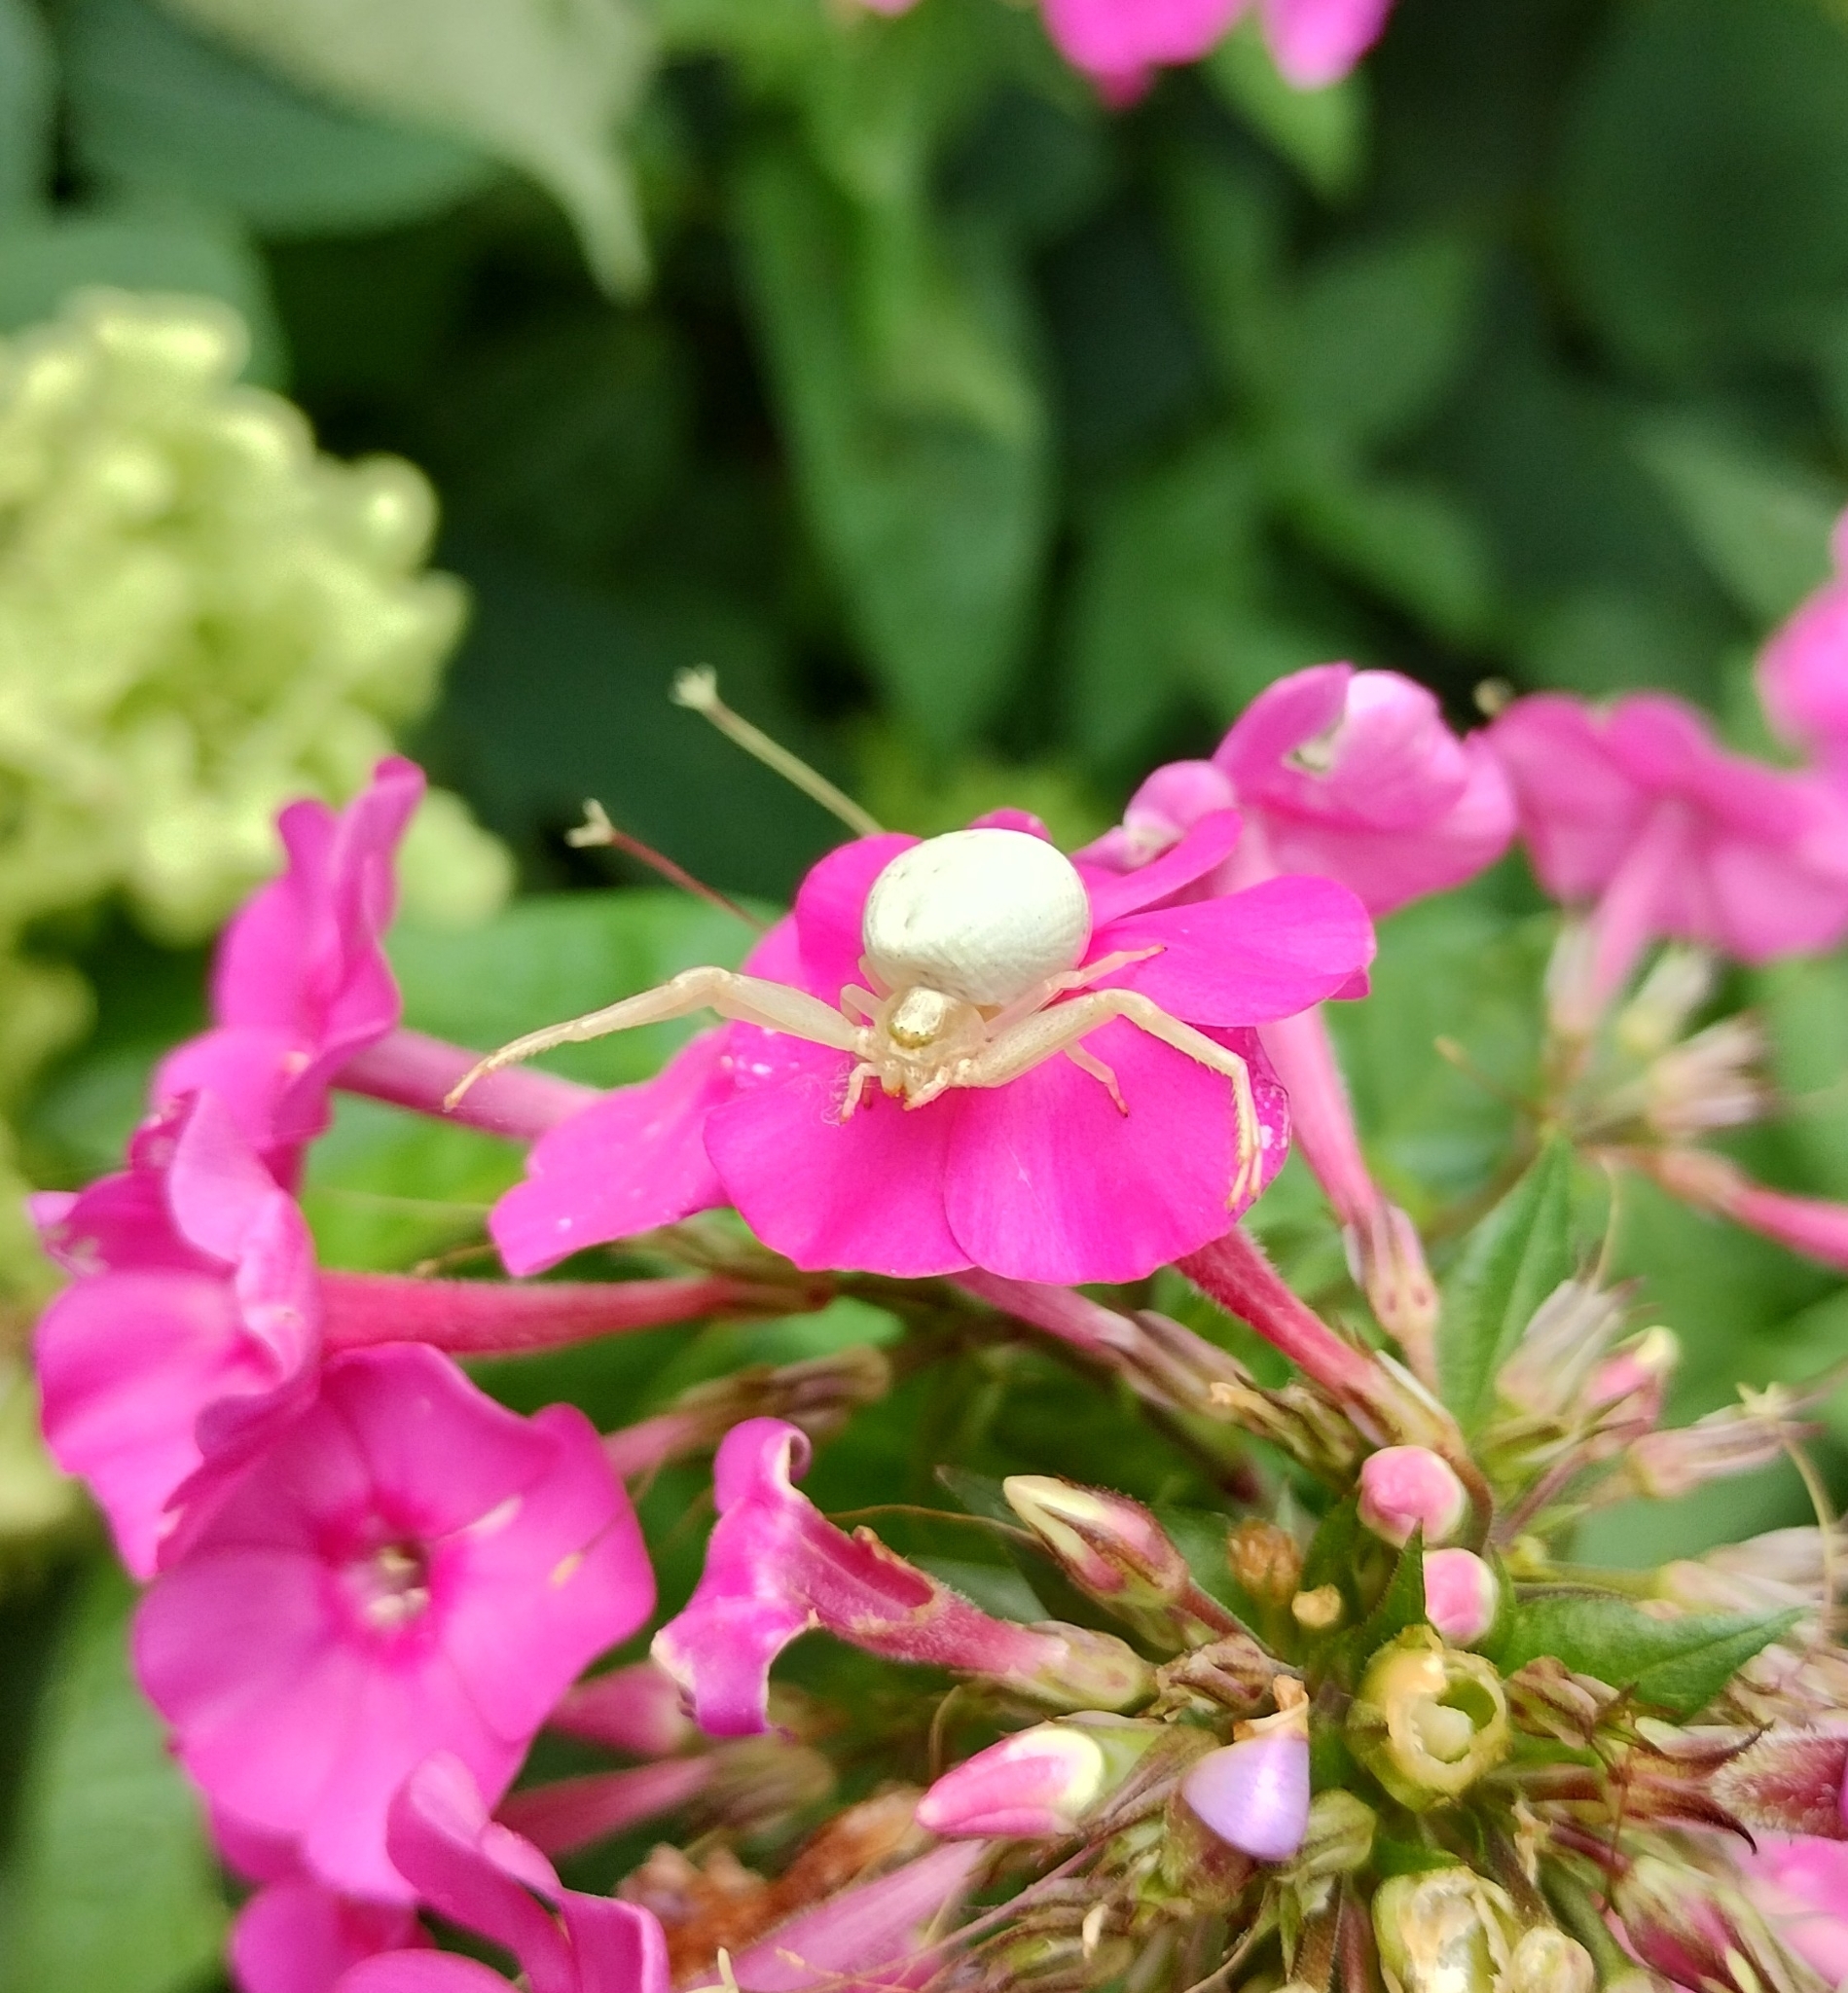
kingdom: Animalia
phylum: Arthropoda
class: Arachnida
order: Araneae
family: Thomisidae
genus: Misumena
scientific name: Misumena vatia
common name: Goldenrod crab spider
